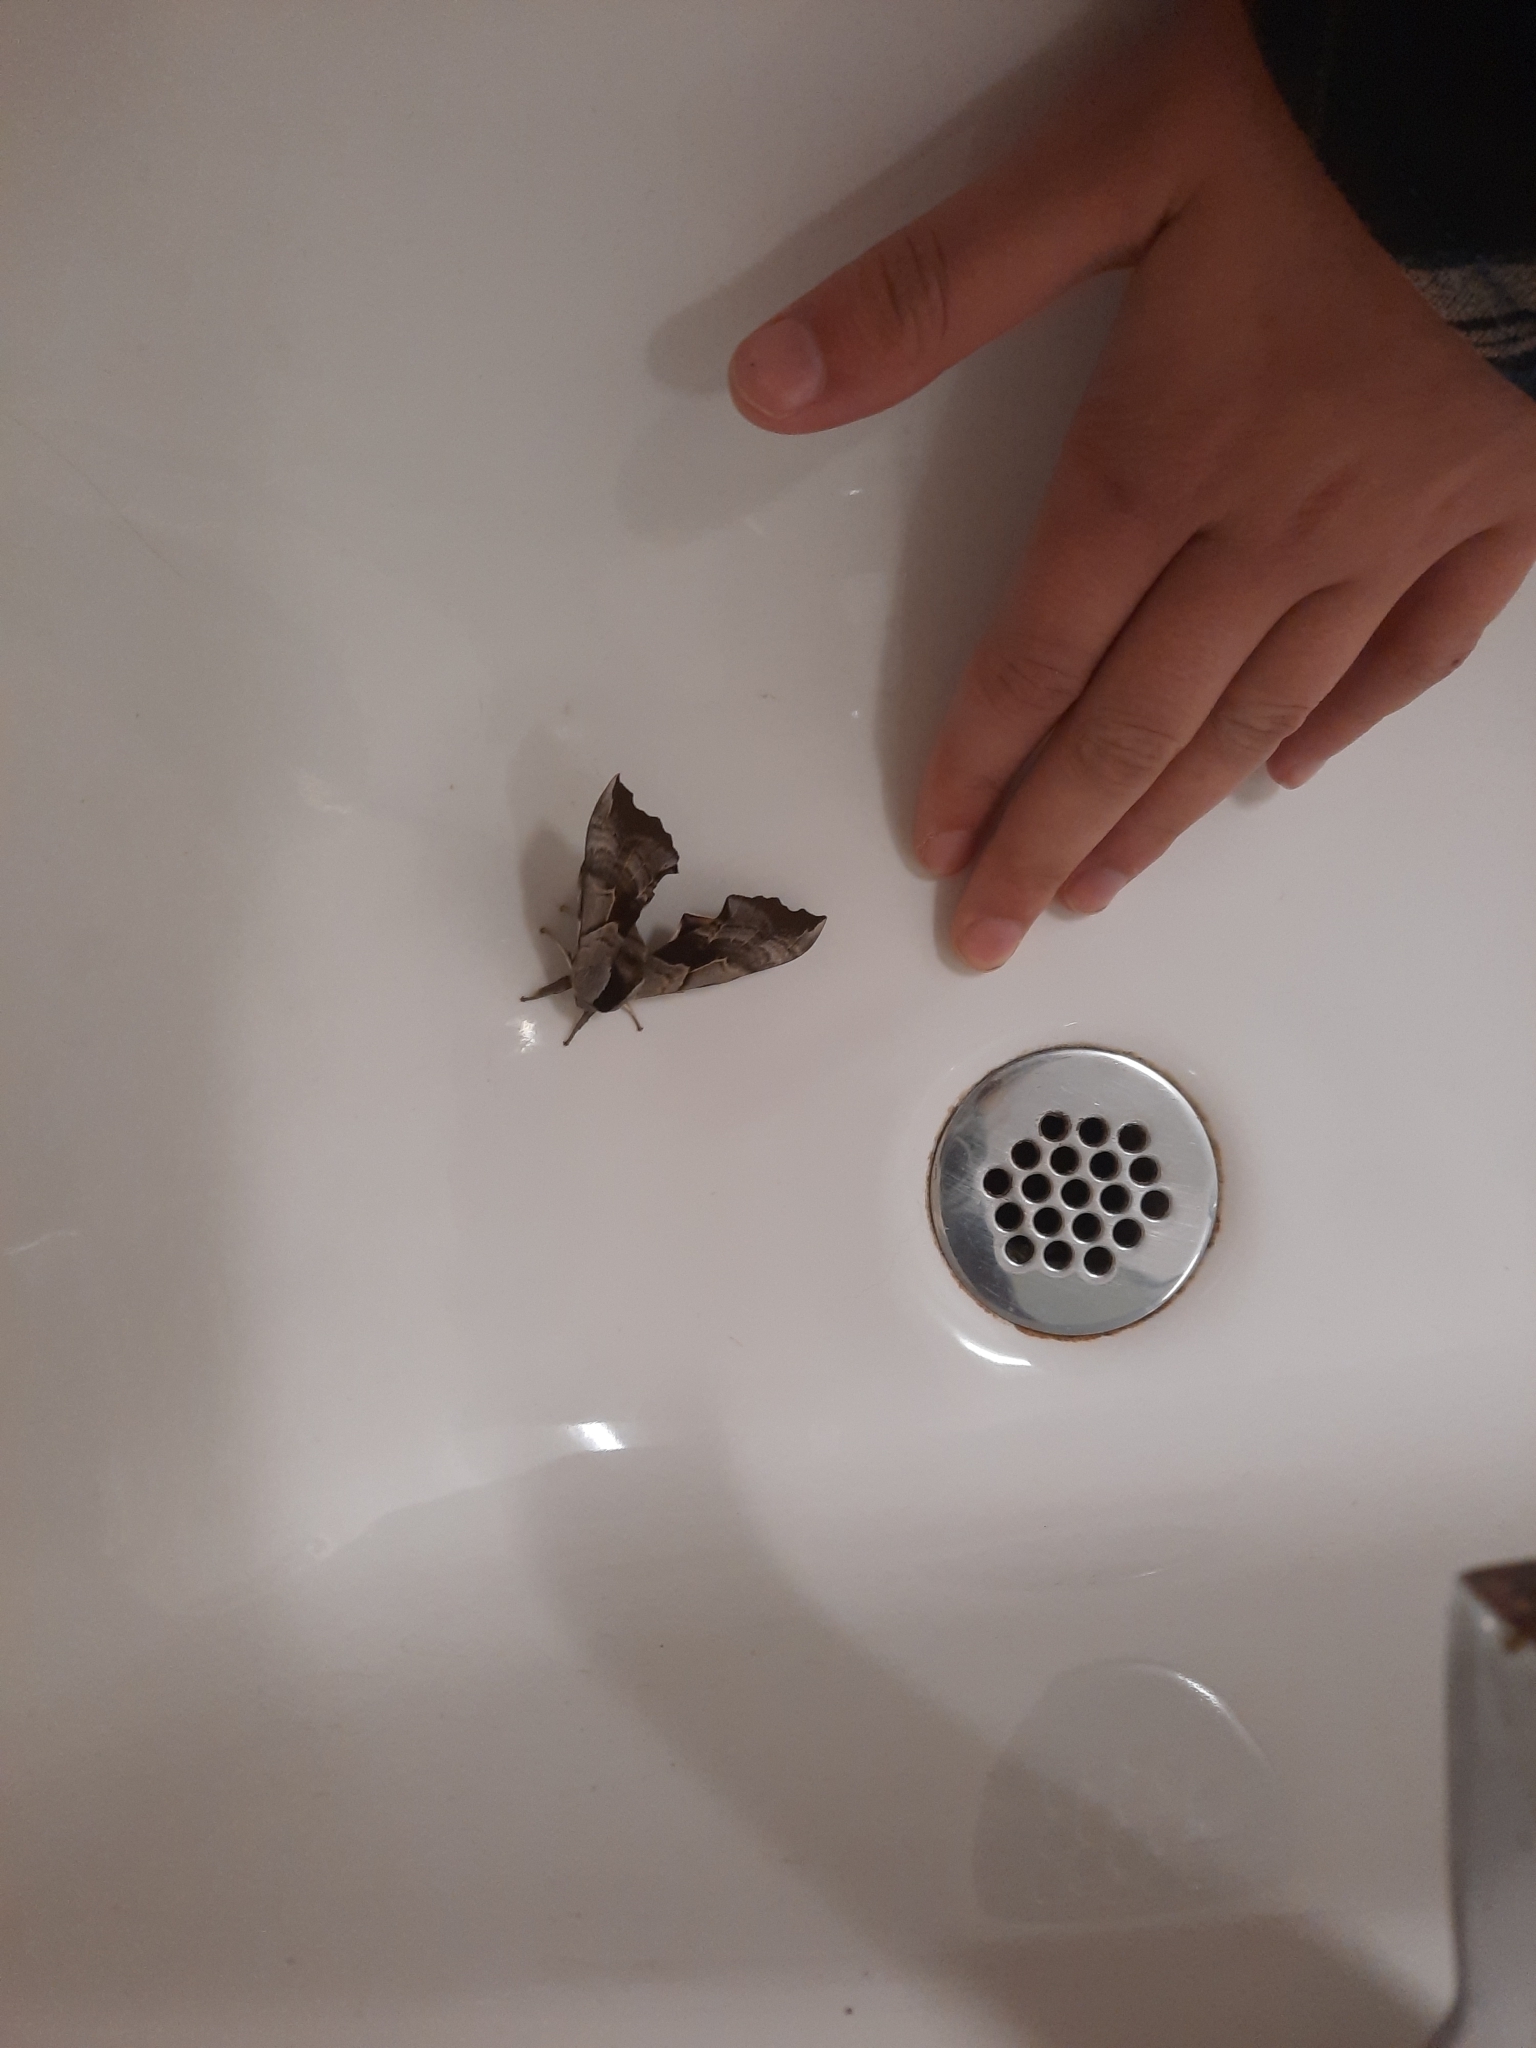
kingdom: Animalia
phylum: Arthropoda
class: Insecta
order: Lepidoptera
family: Sphingidae
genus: Smerinthus
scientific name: Smerinthus cerisyi
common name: Cerisy's sphinx moth
